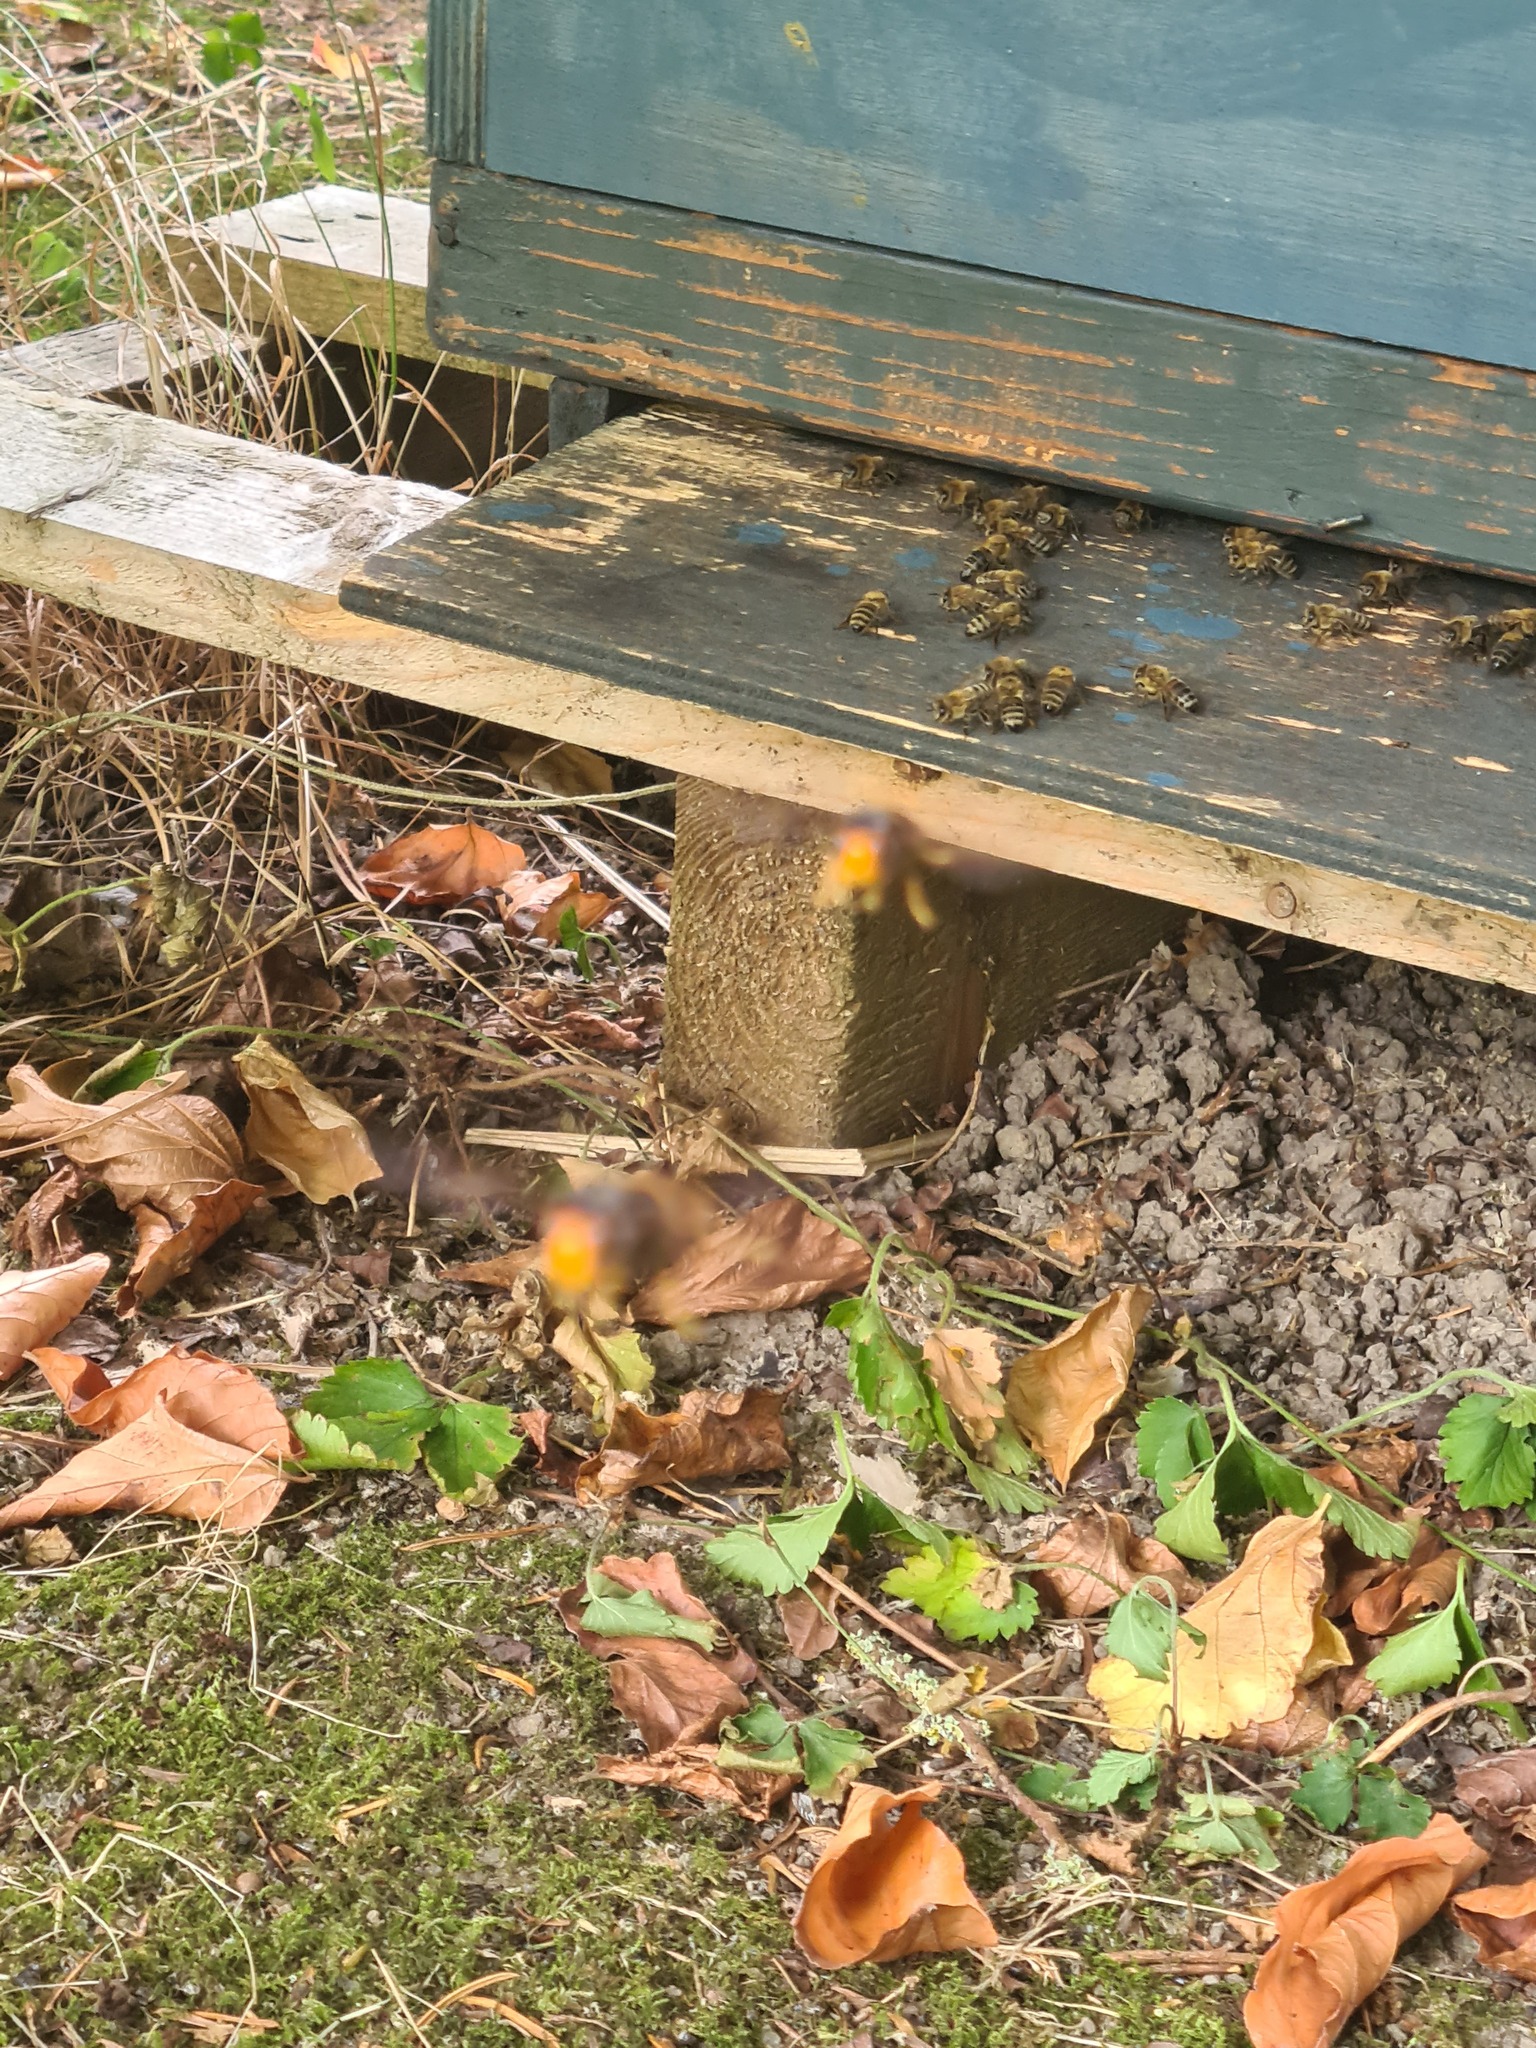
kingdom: Animalia
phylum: Arthropoda
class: Insecta
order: Hymenoptera
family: Vespidae
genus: Vespa
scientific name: Vespa velutina
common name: Asian hornet
